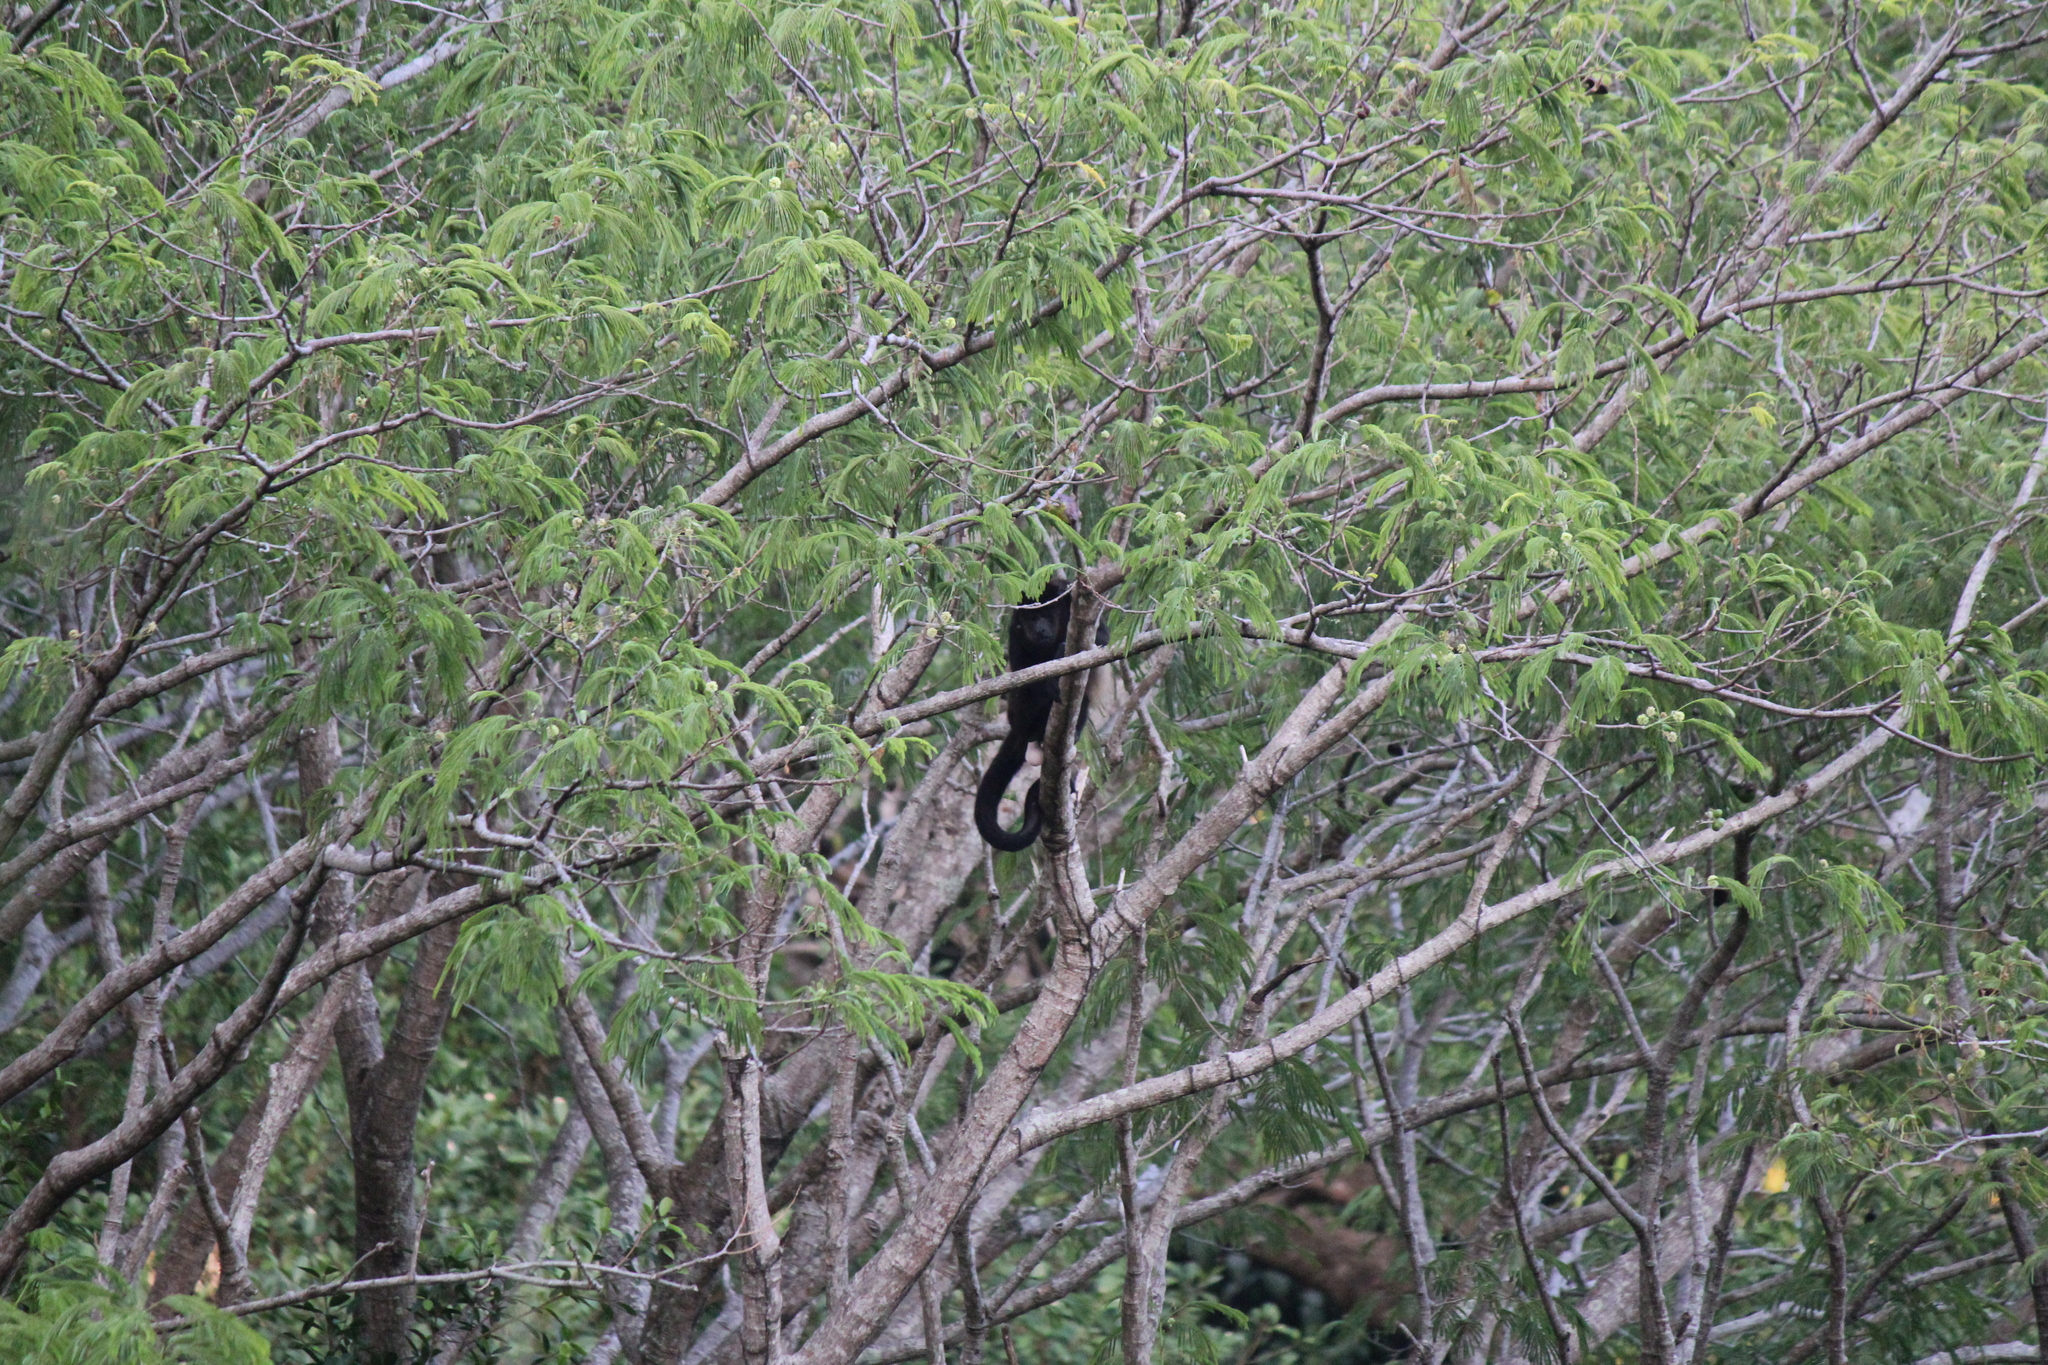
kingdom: Animalia
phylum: Chordata
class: Mammalia
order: Primates
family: Atelidae
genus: Alouatta
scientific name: Alouatta palliata
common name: Mantled howler
